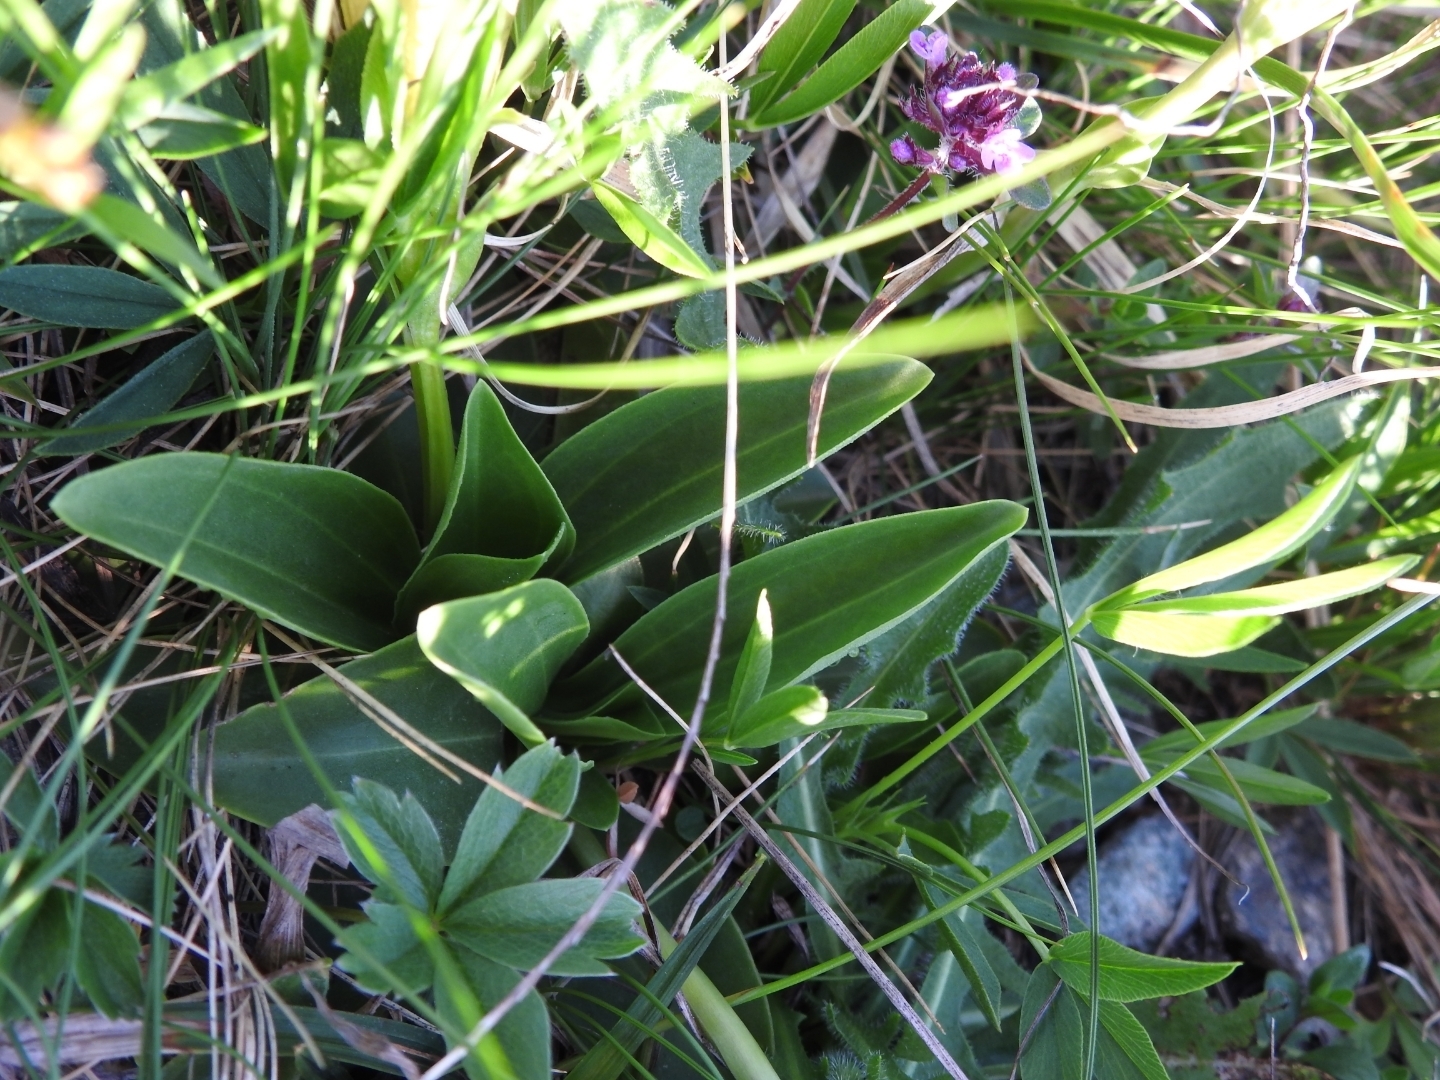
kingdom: Plantae
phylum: Tracheophyta
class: Magnoliopsida
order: Gentianales
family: Gentianaceae
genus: Gentiana
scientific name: Gentiana acaulis
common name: Trumpet gentian
